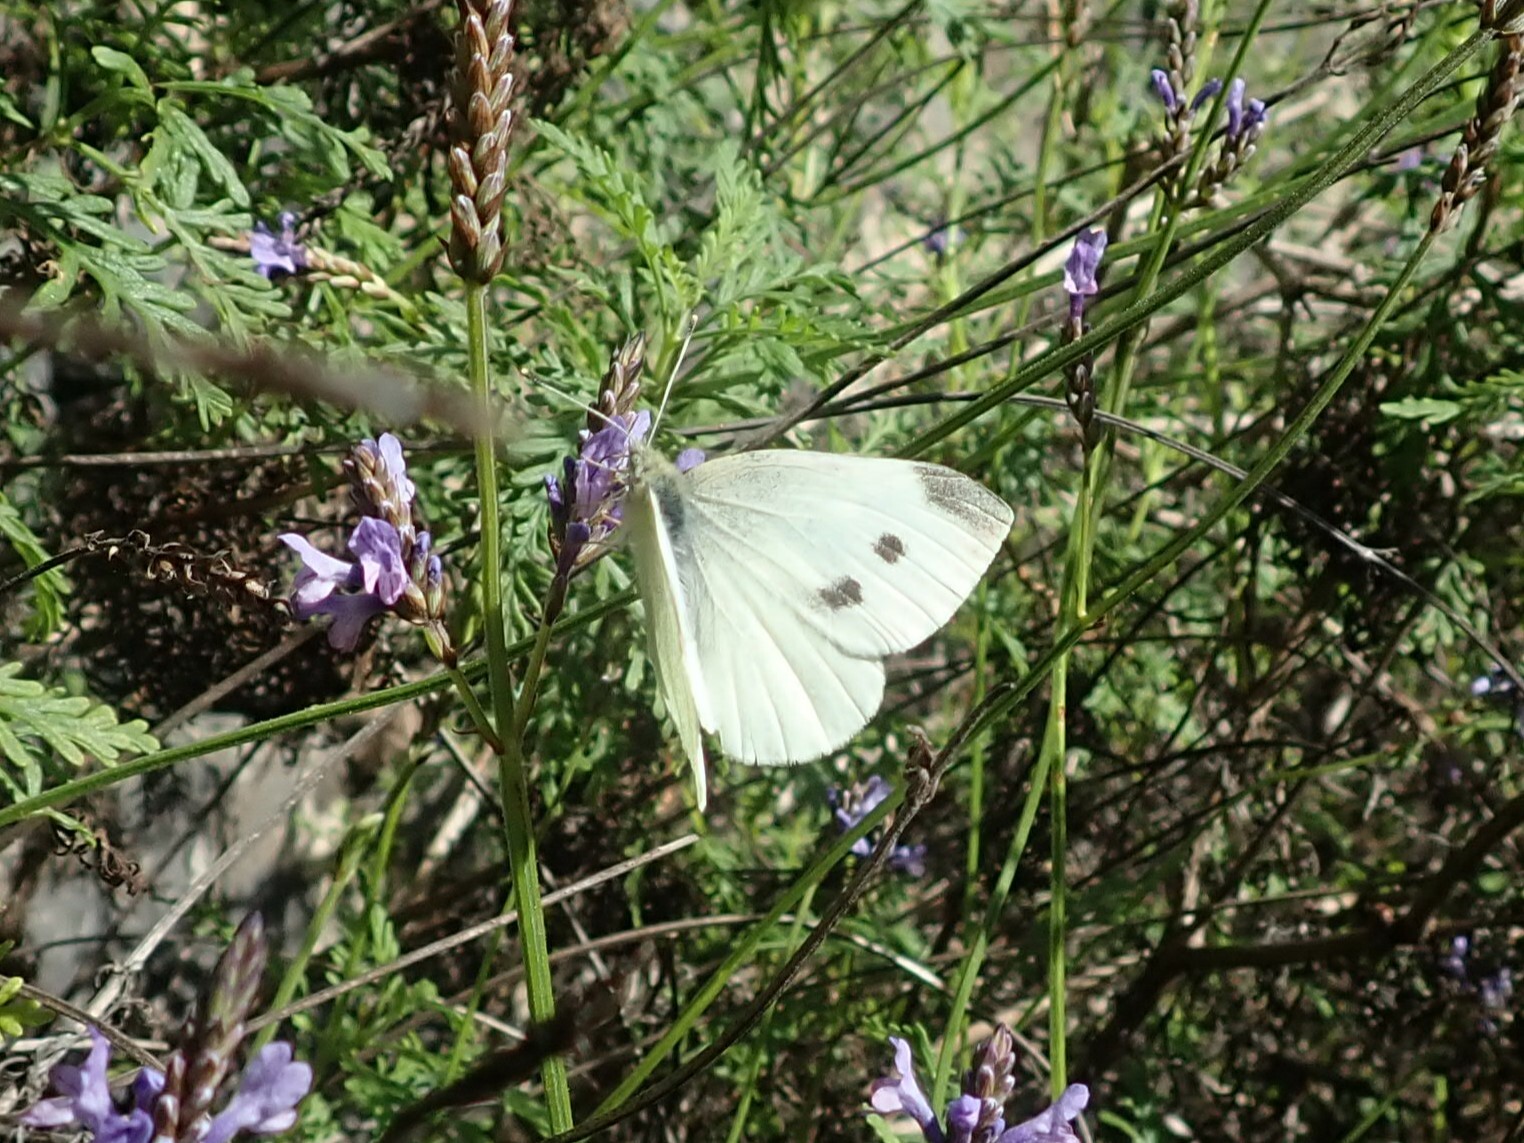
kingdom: Animalia
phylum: Arthropoda
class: Insecta
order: Lepidoptera
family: Pieridae
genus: Pieris
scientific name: Pieris rapae
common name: Small white
